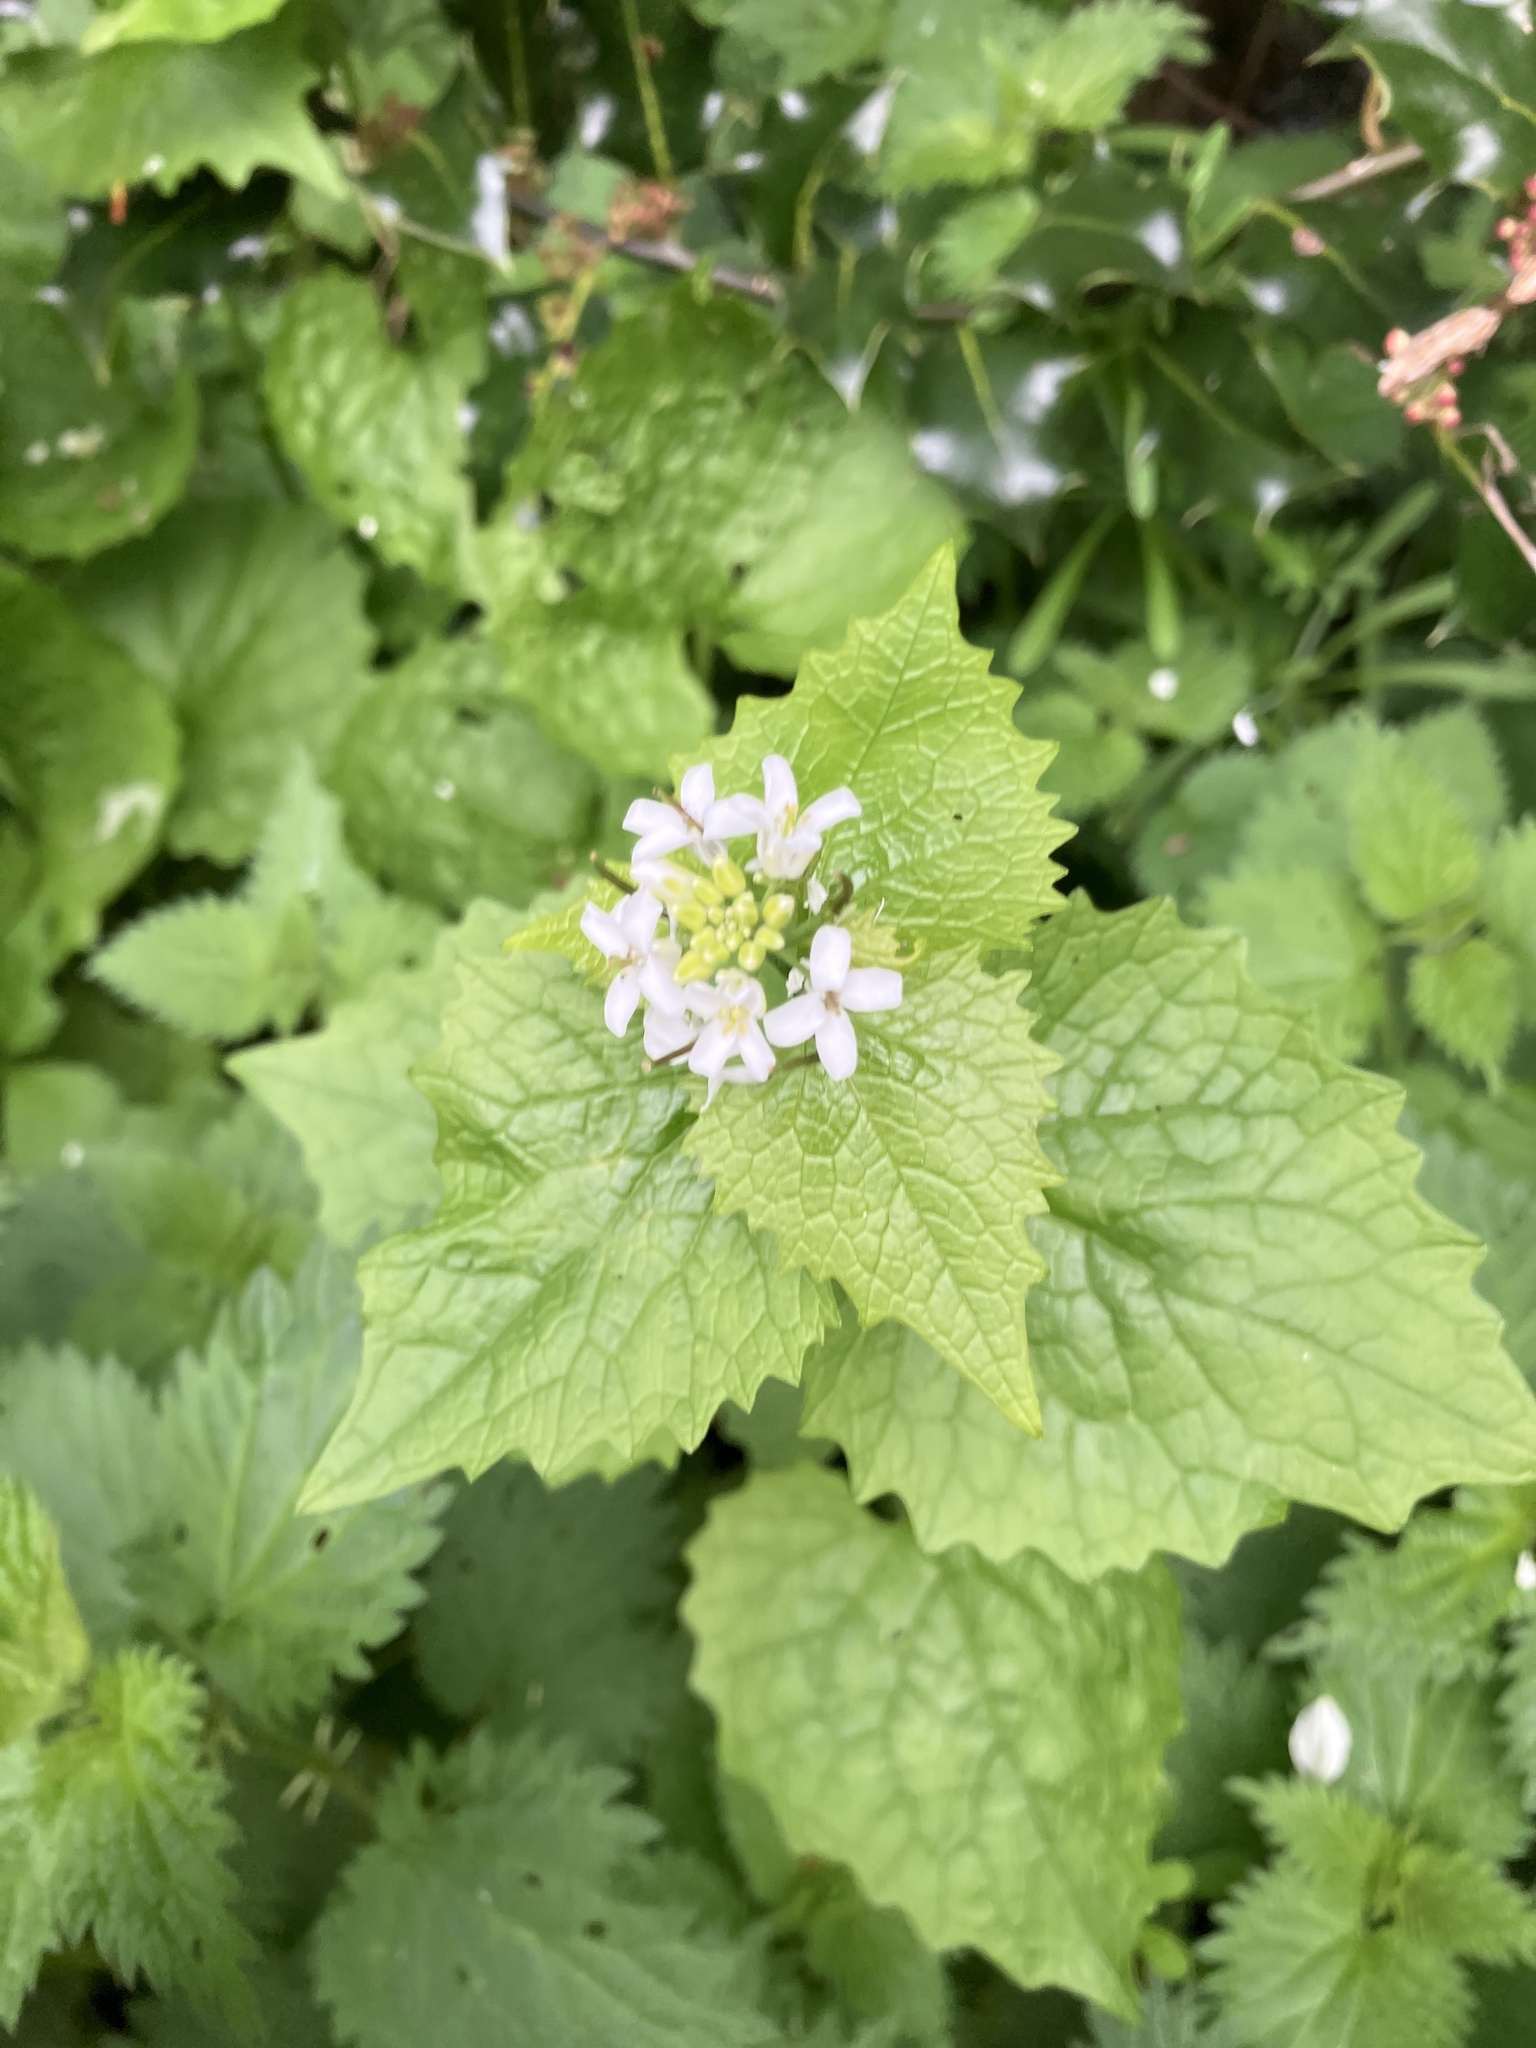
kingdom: Plantae
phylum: Tracheophyta
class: Magnoliopsida
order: Brassicales
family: Brassicaceae
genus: Alliaria
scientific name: Alliaria petiolata
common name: Garlic mustard
